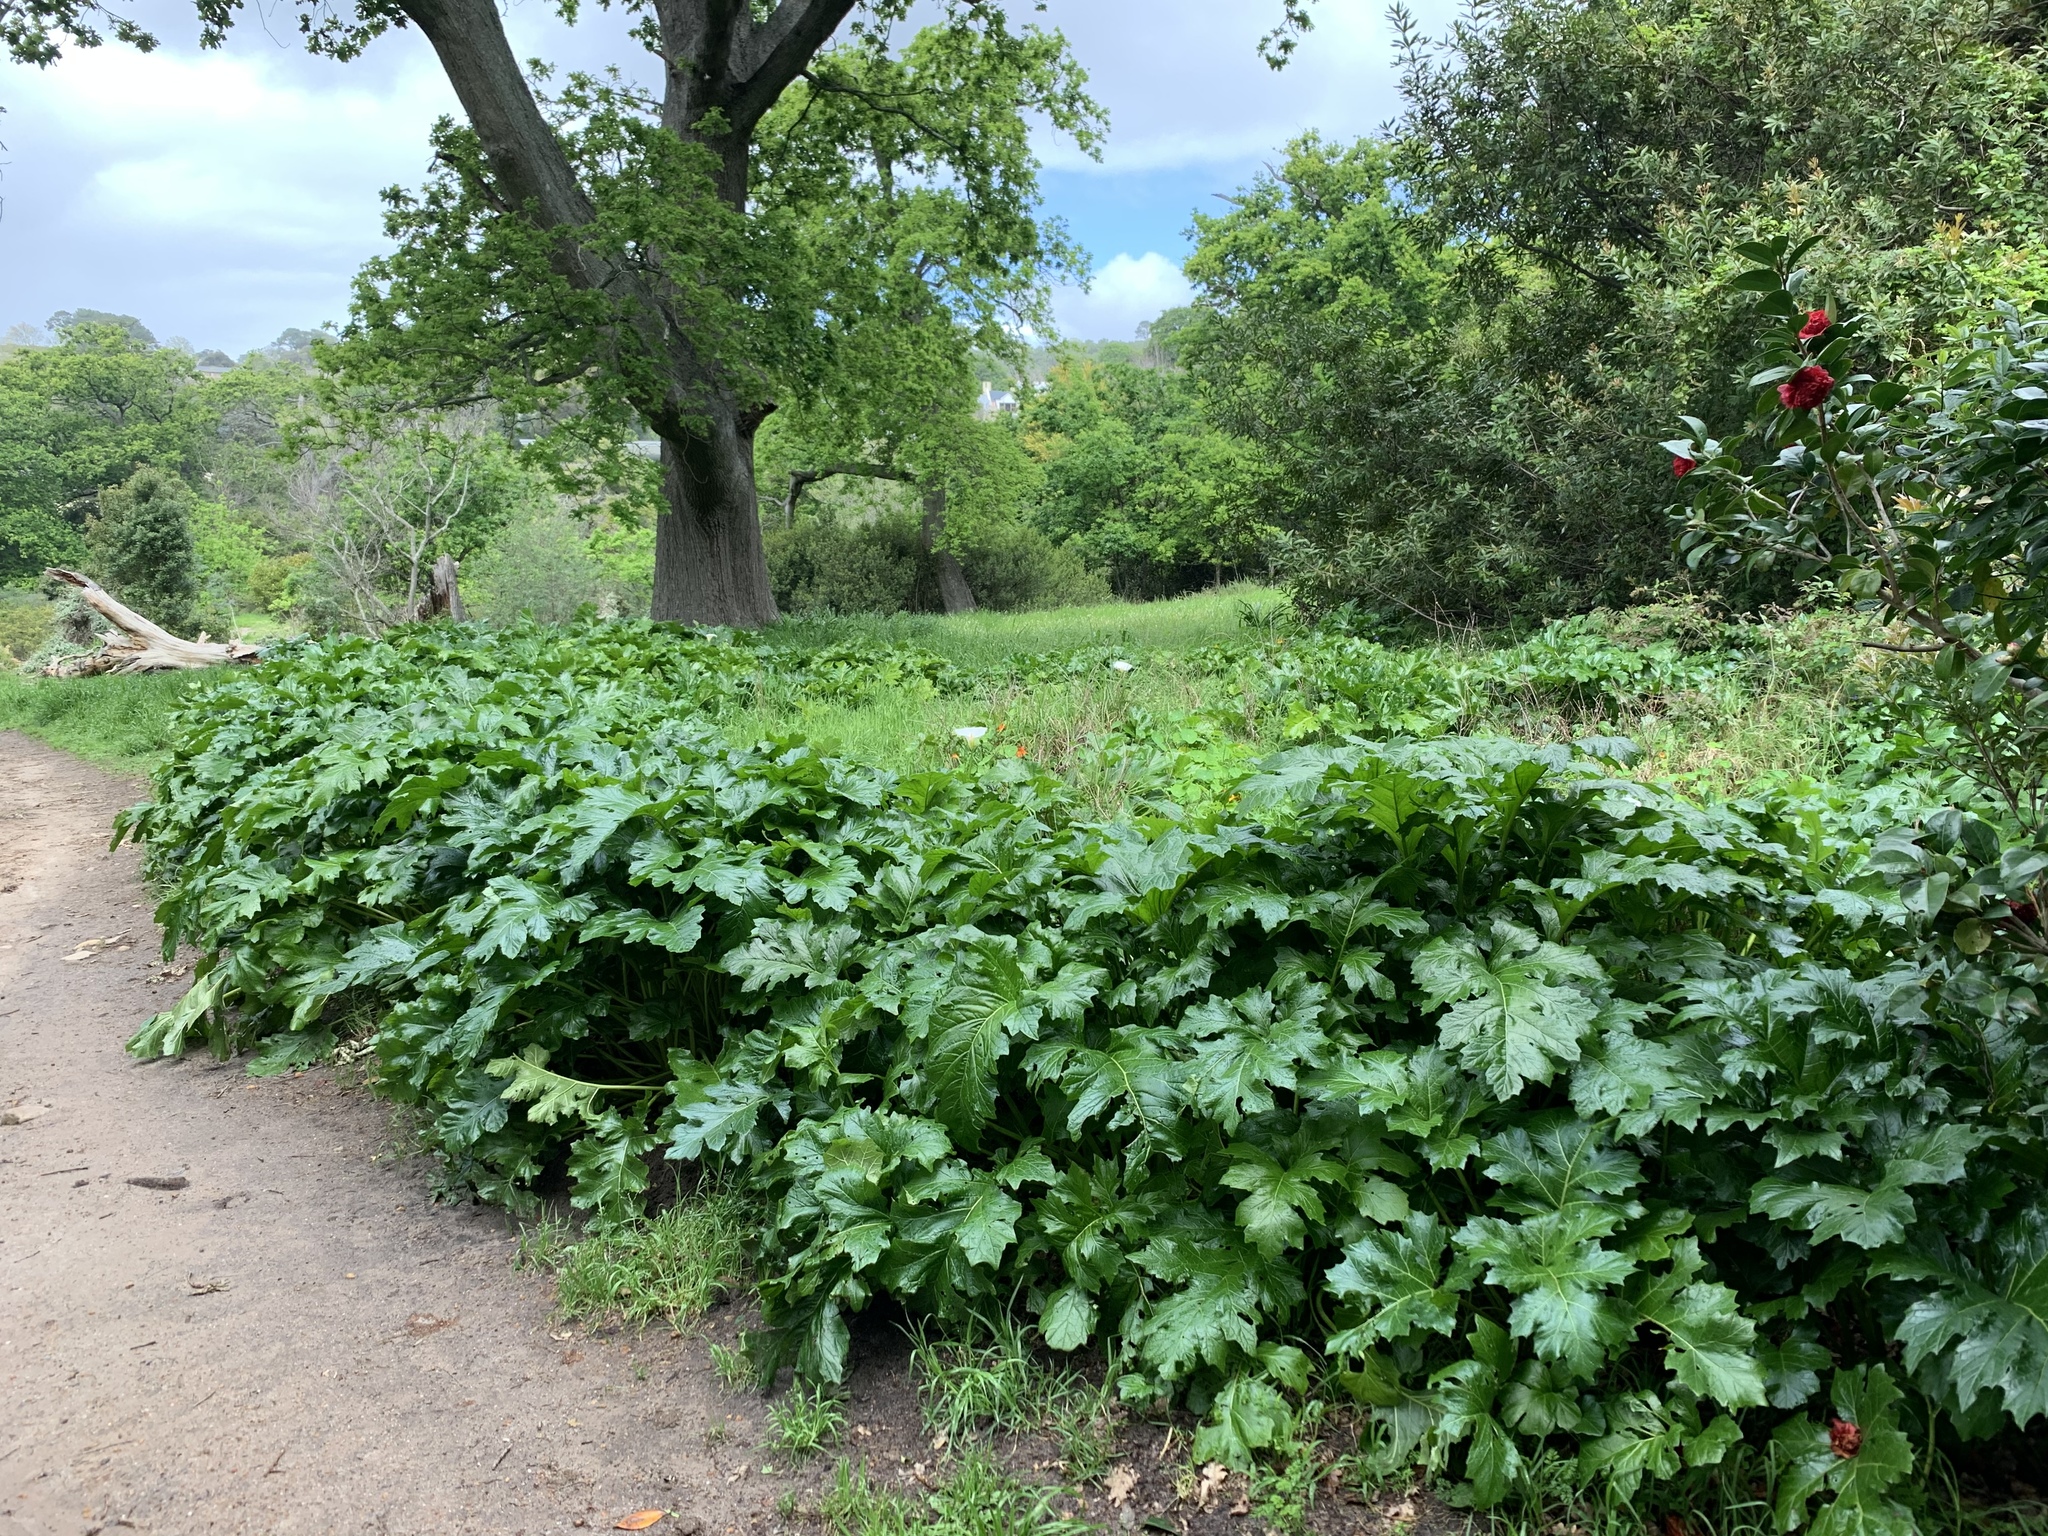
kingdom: Plantae
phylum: Tracheophyta
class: Magnoliopsida
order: Lamiales
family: Acanthaceae
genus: Acanthus
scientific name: Acanthus mollis
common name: Bear's-breech
